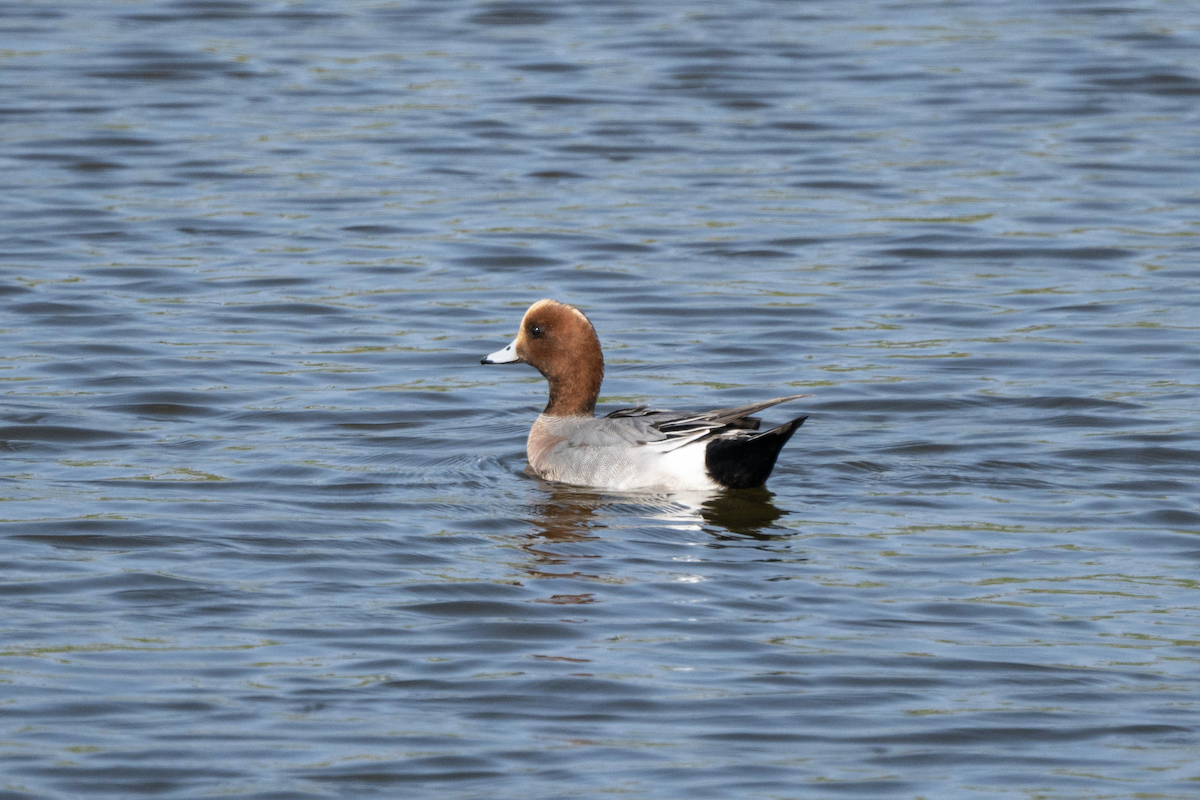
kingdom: Animalia
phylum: Chordata
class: Aves
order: Anseriformes
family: Anatidae
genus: Mareca
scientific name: Mareca penelope
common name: Eurasian wigeon
